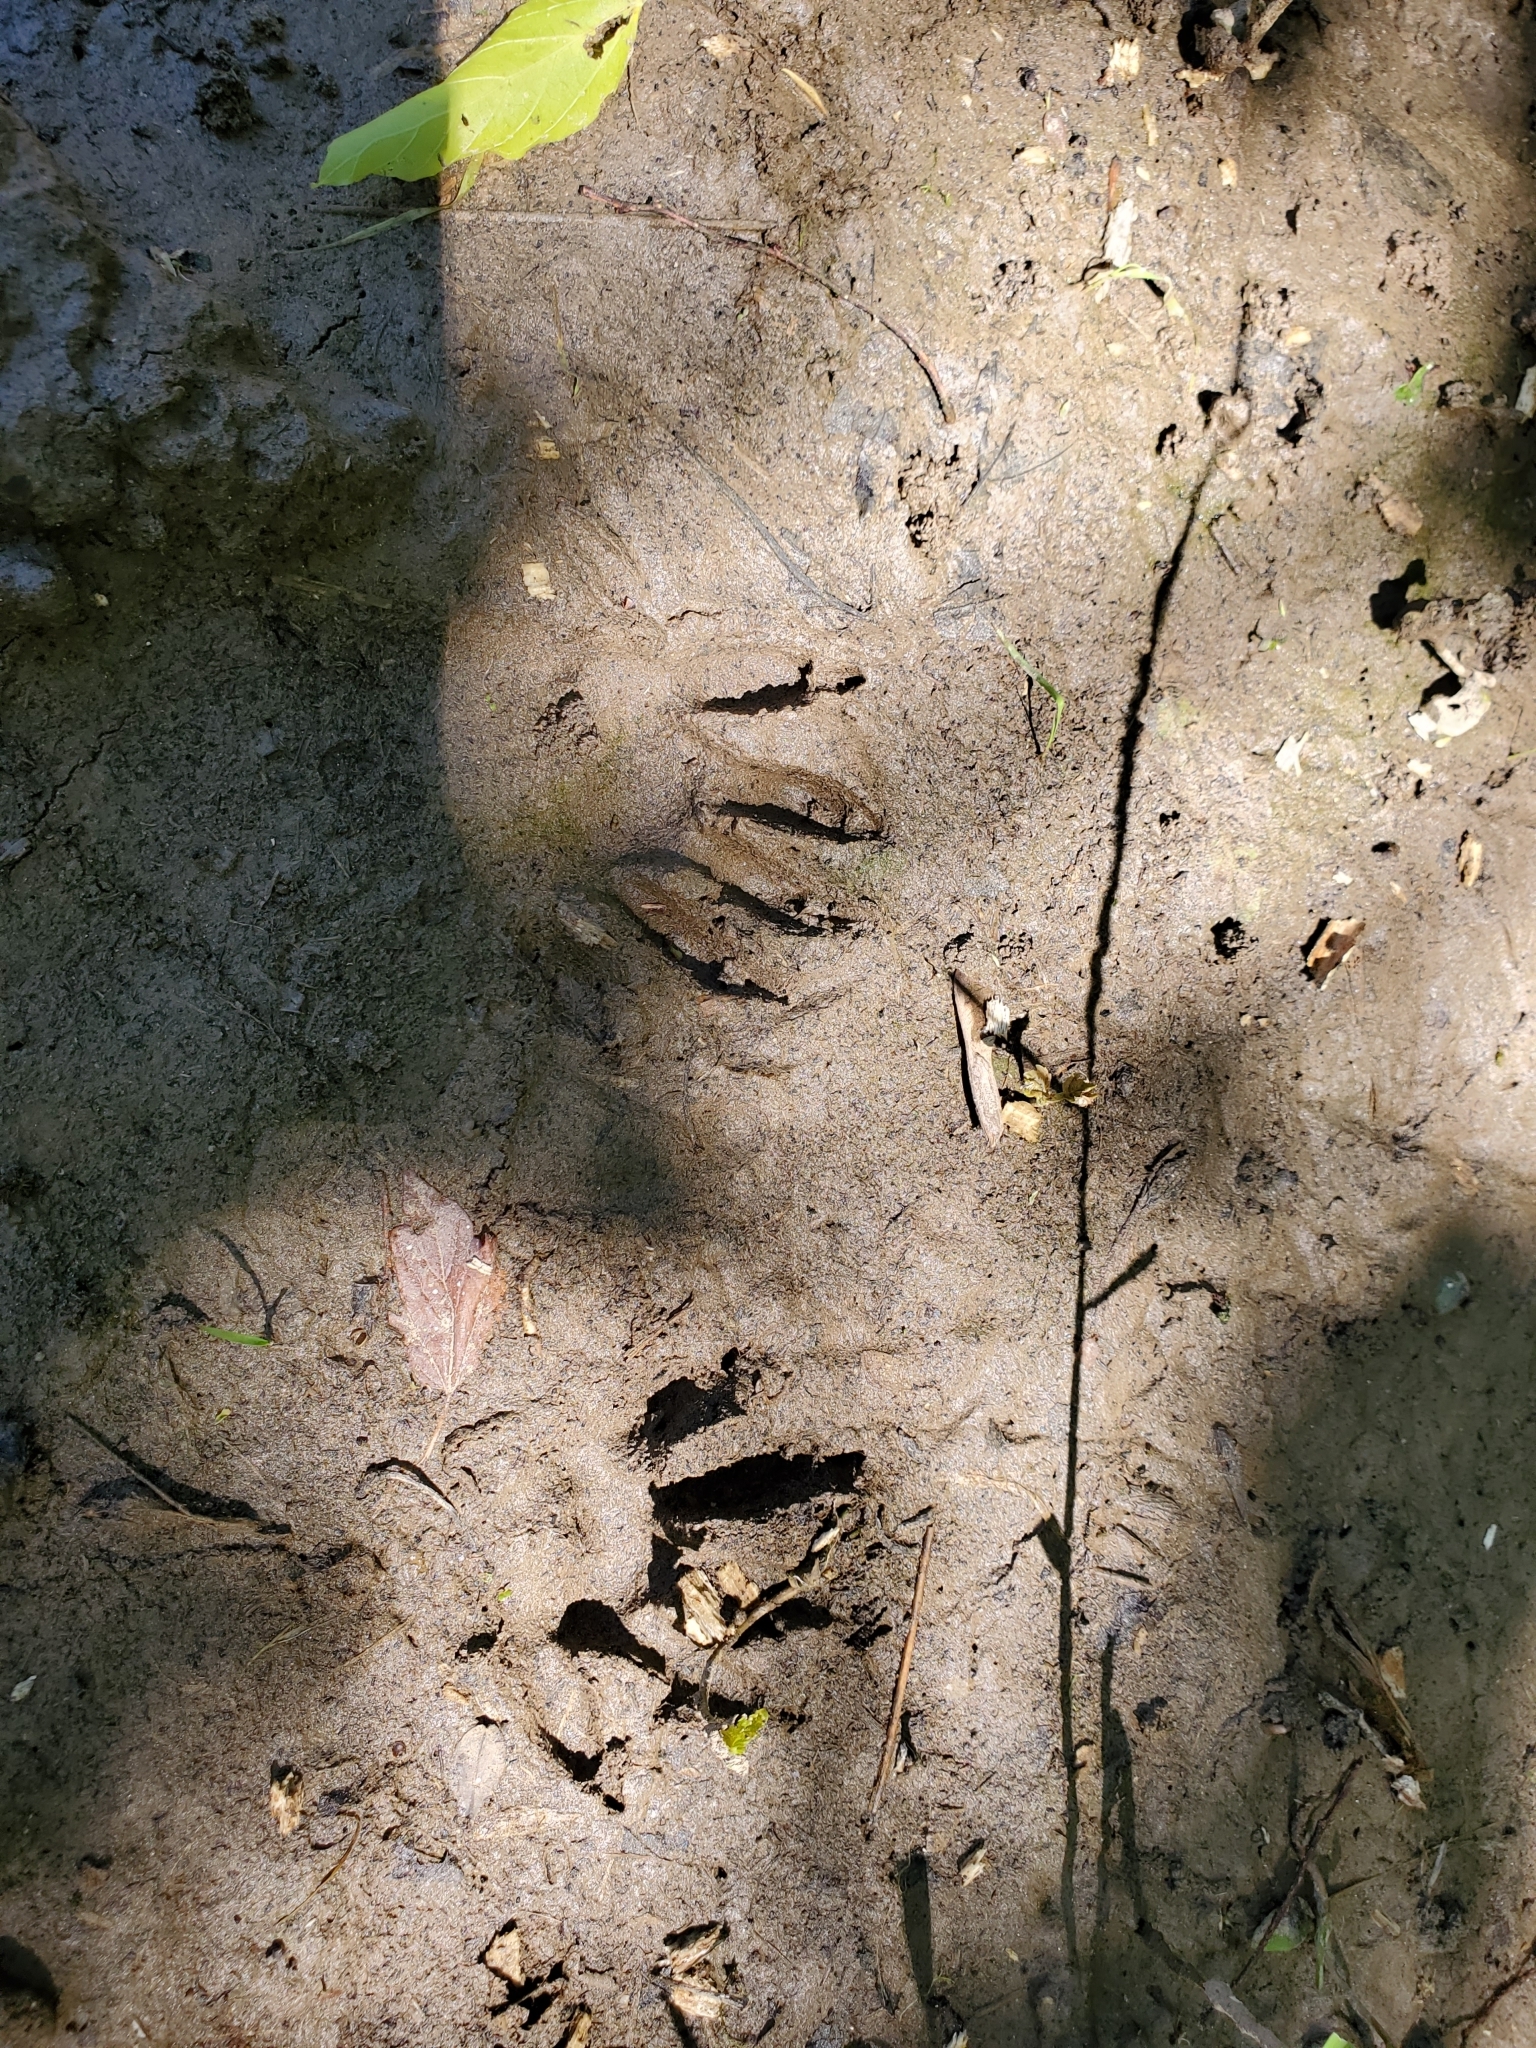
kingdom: Animalia
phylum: Chordata
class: Mammalia
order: Carnivora
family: Procyonidae
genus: Procyon
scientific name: Procyon lotor
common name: Raccoon
